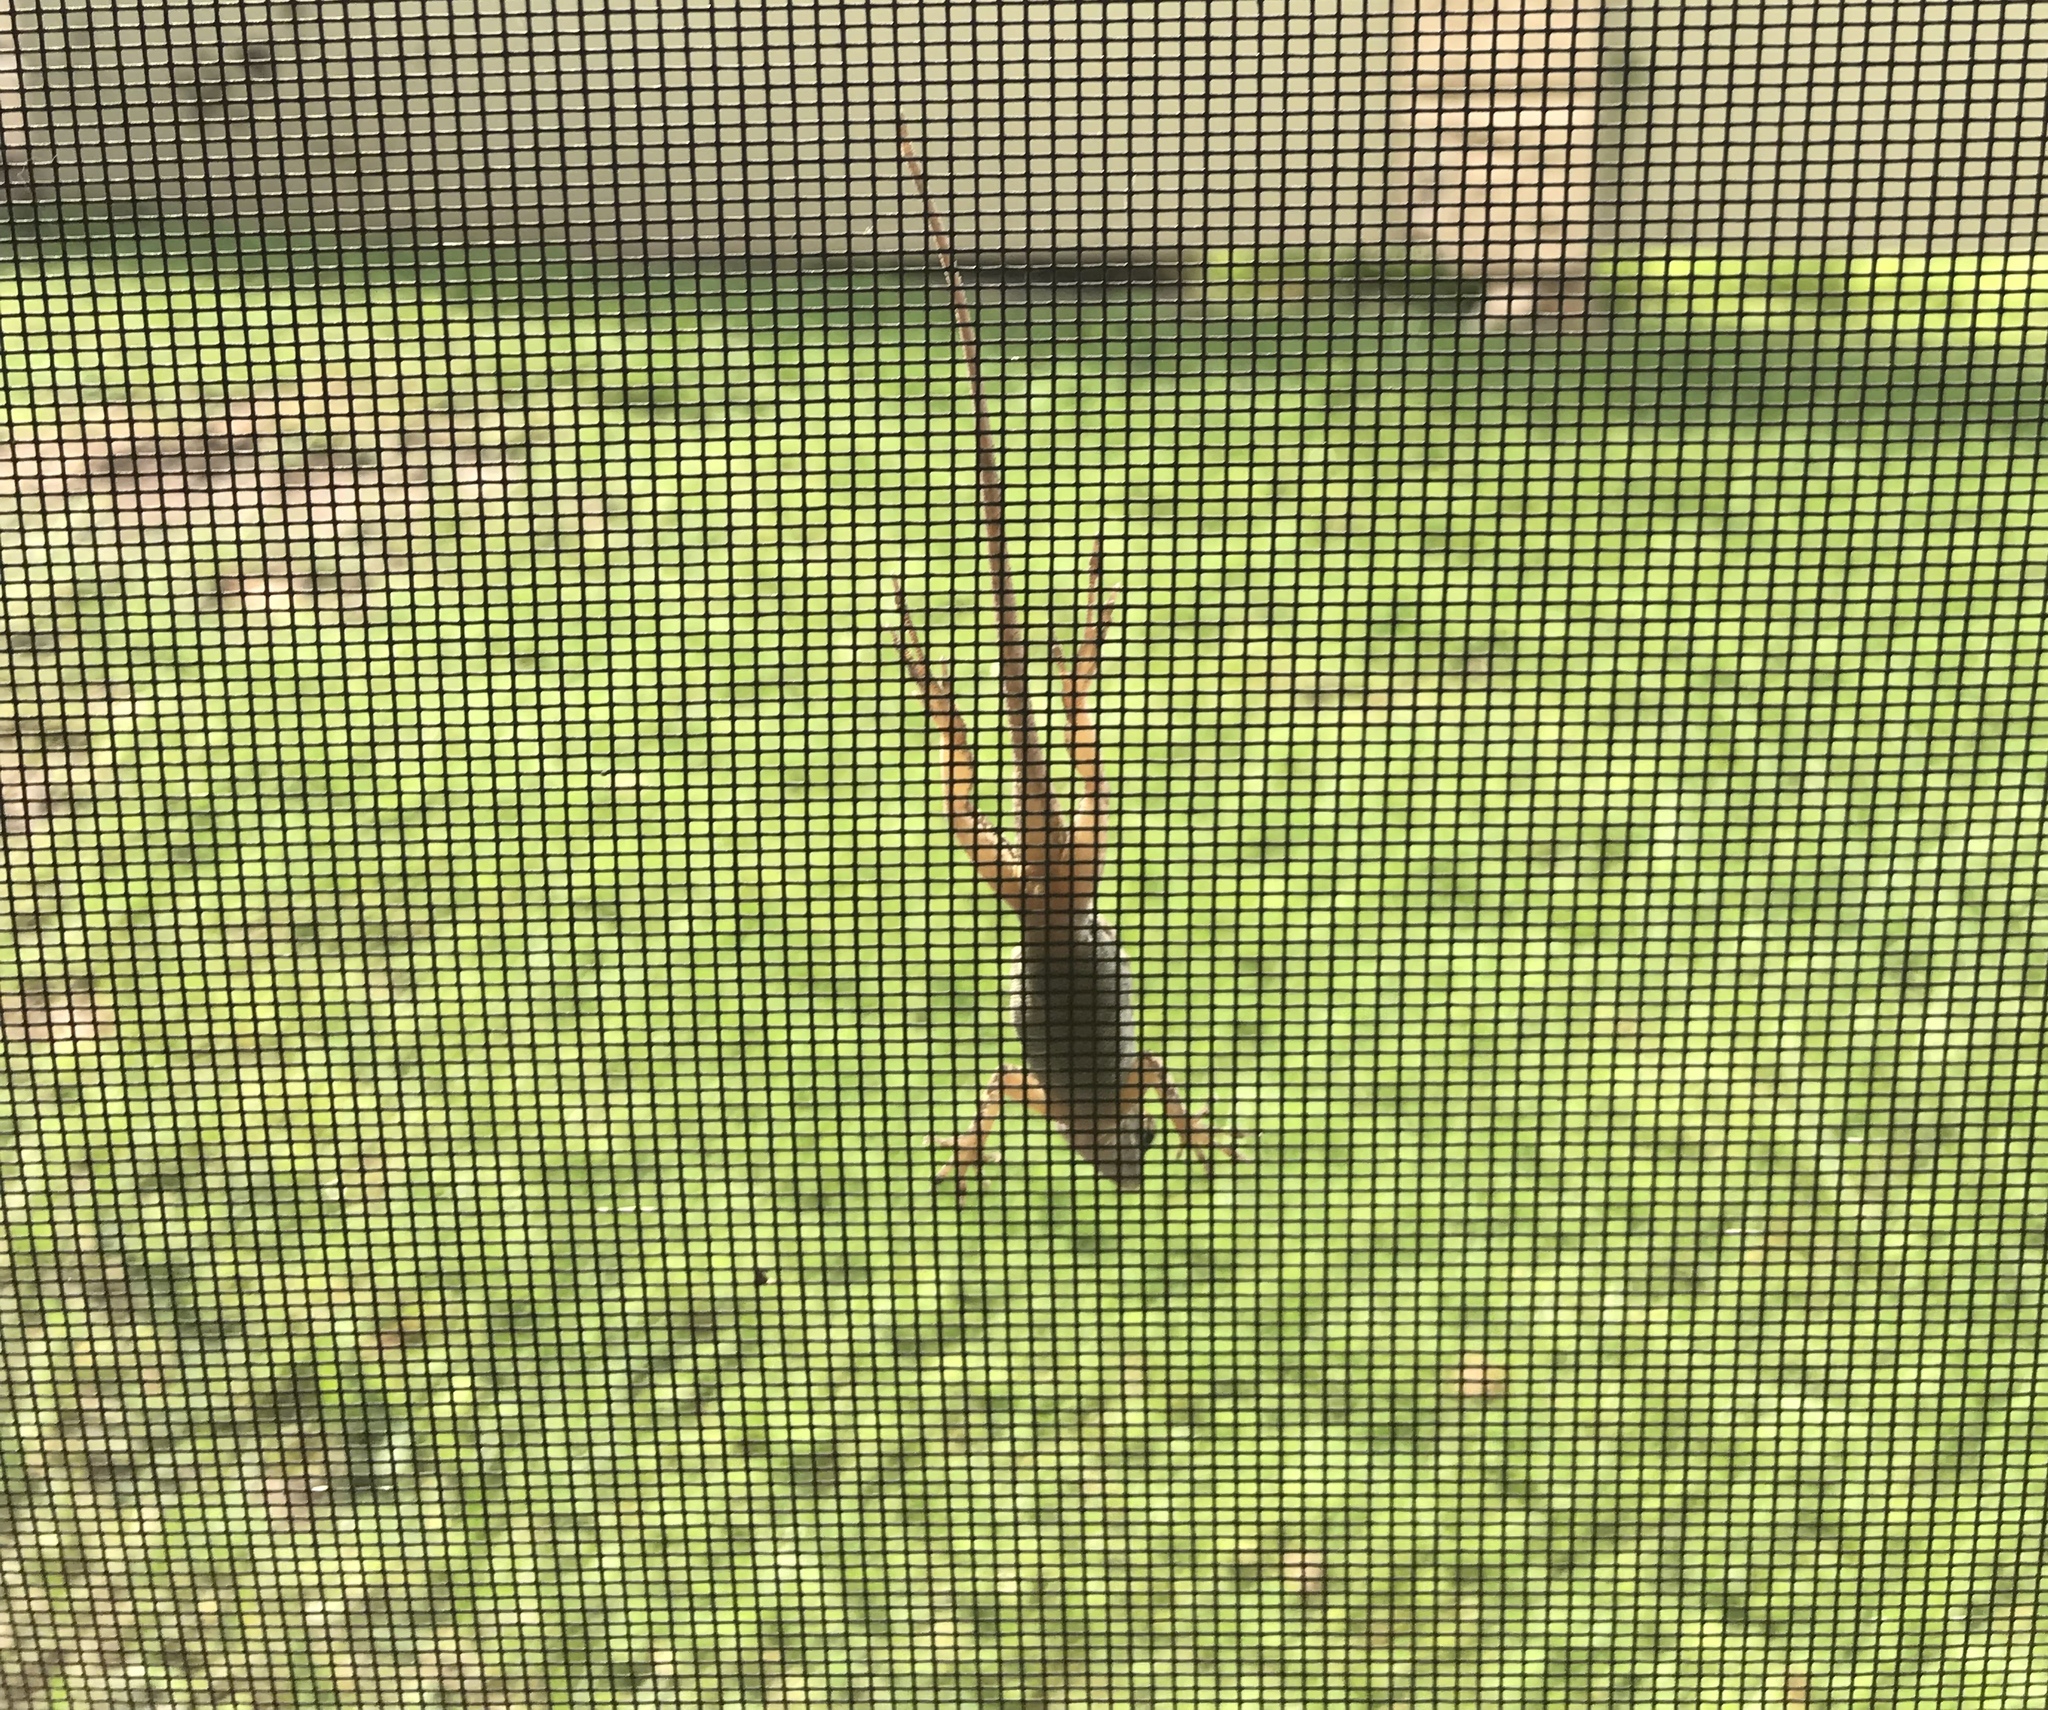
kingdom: Animalia
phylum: Chordata
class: Squamata
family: Dactyloidae
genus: Anolis
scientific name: Anolis
